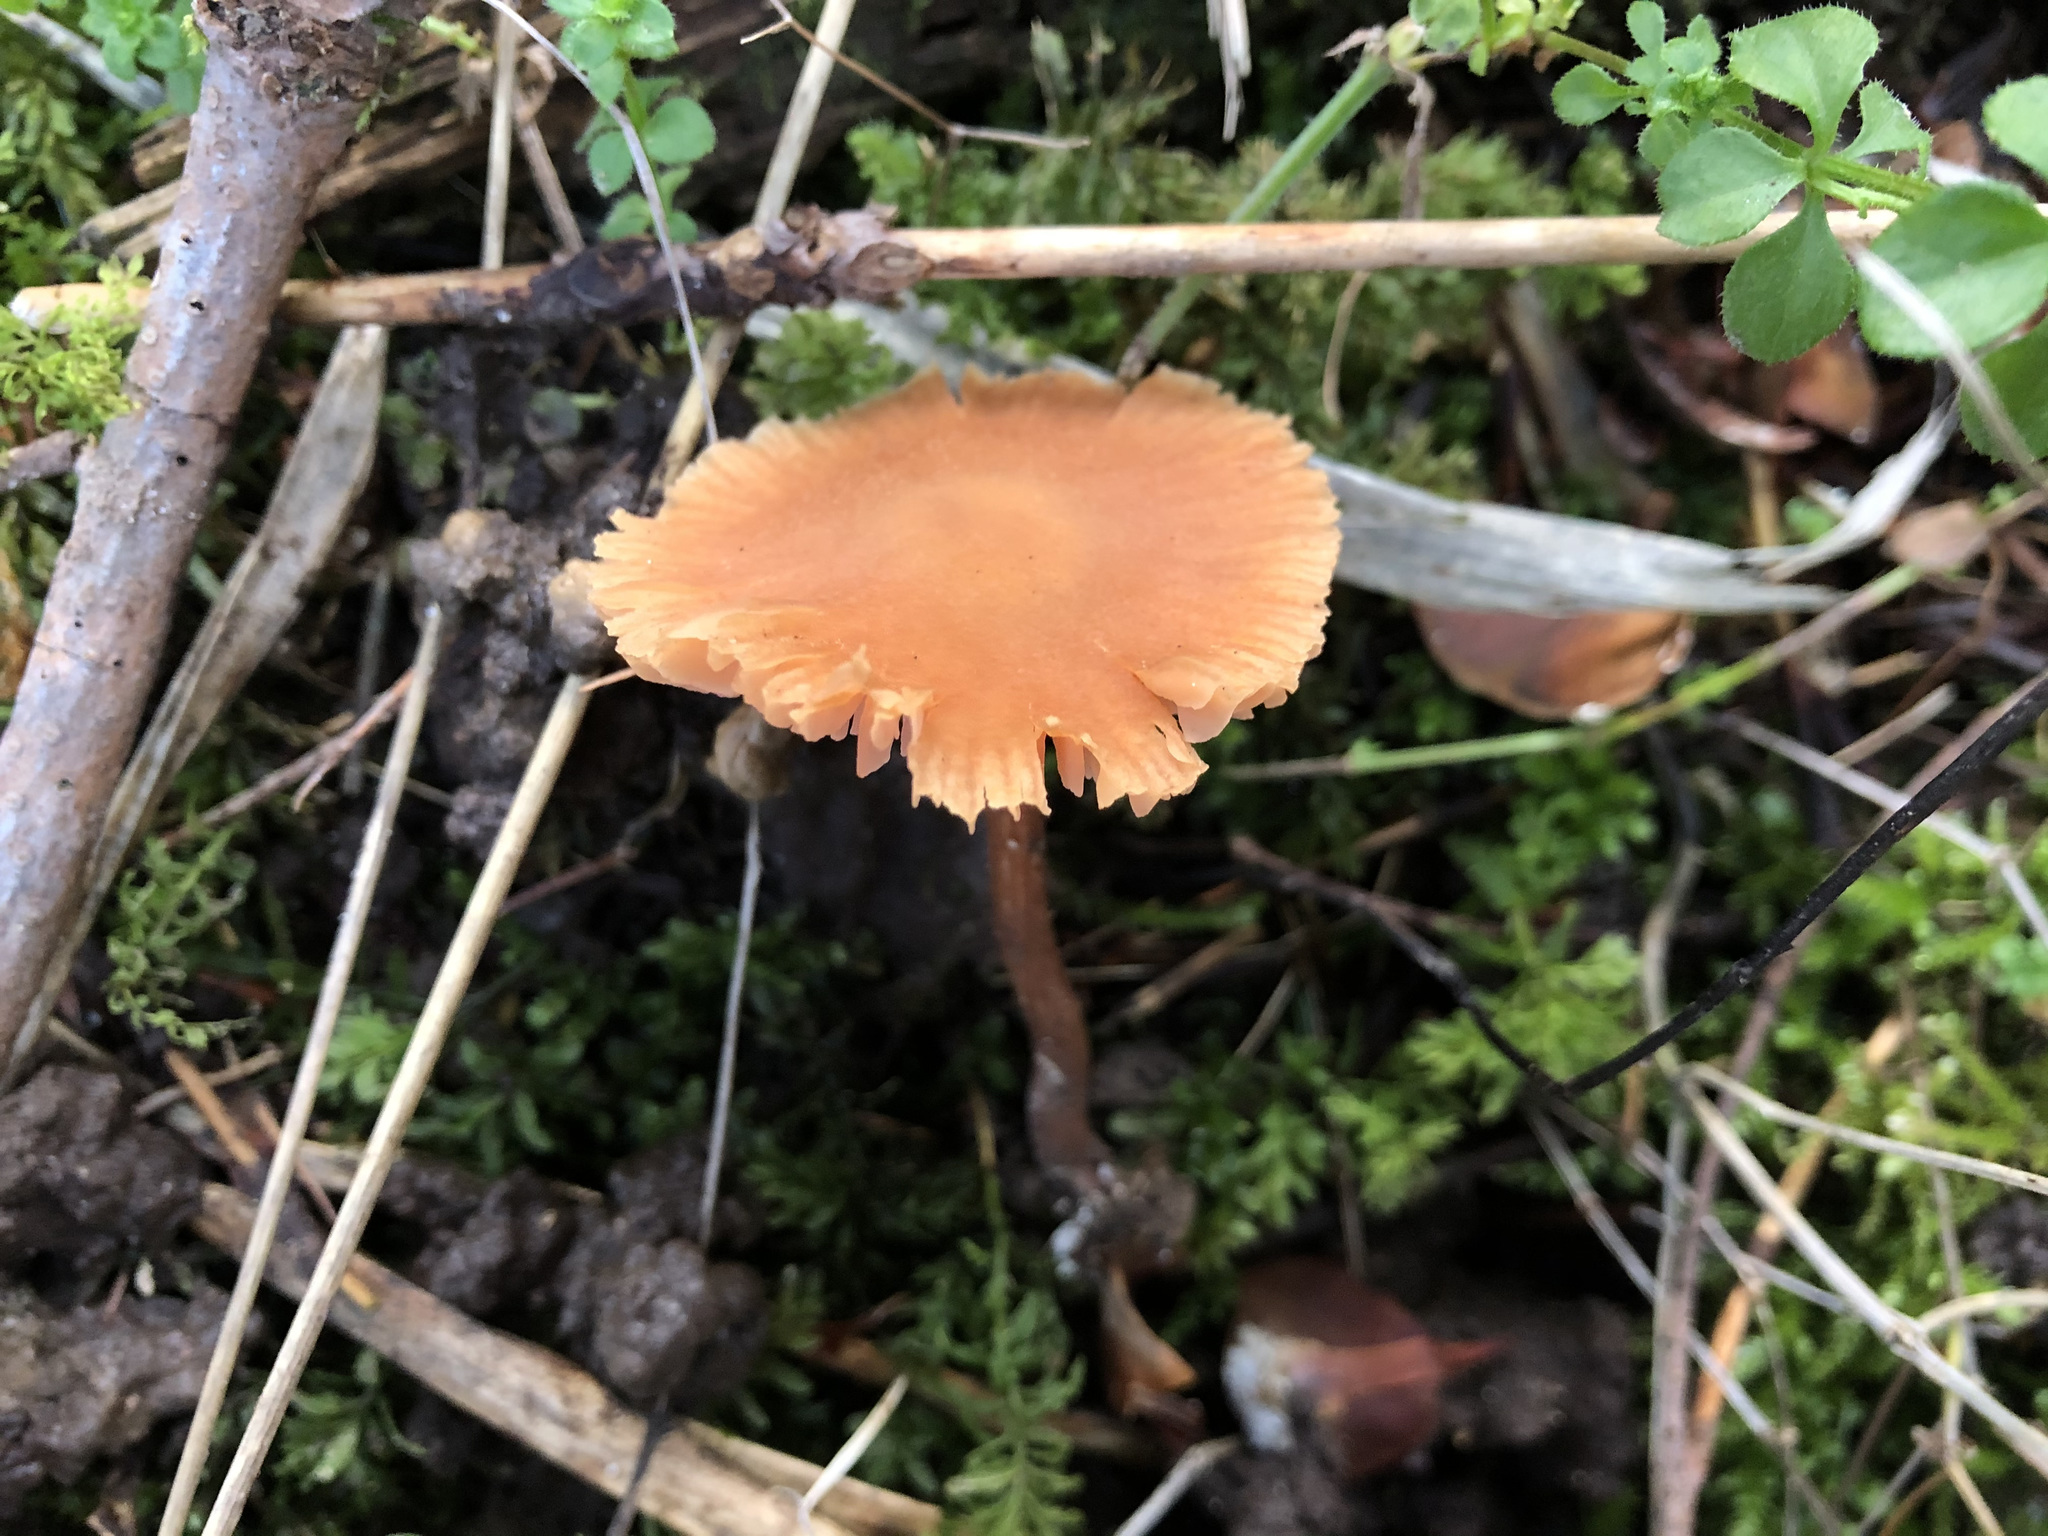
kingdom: Fungi
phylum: Basidiomycota
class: Agaricomycetes
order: Agaricales
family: Hydnangiaceae
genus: Laccaria
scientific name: Laccaria laccata
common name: Deceiver
